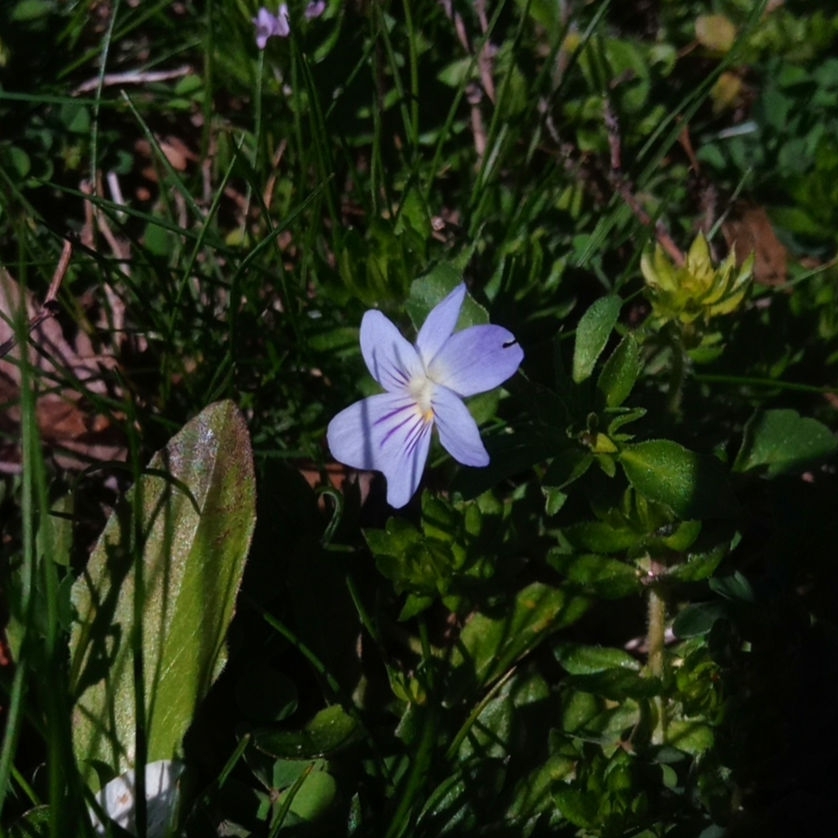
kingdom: Plantae
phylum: Tracheophyta
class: Magnoliopsida
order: Malpighiales
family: Violaceae
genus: Viola
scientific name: Viola rafinesquei
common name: American field pansy
